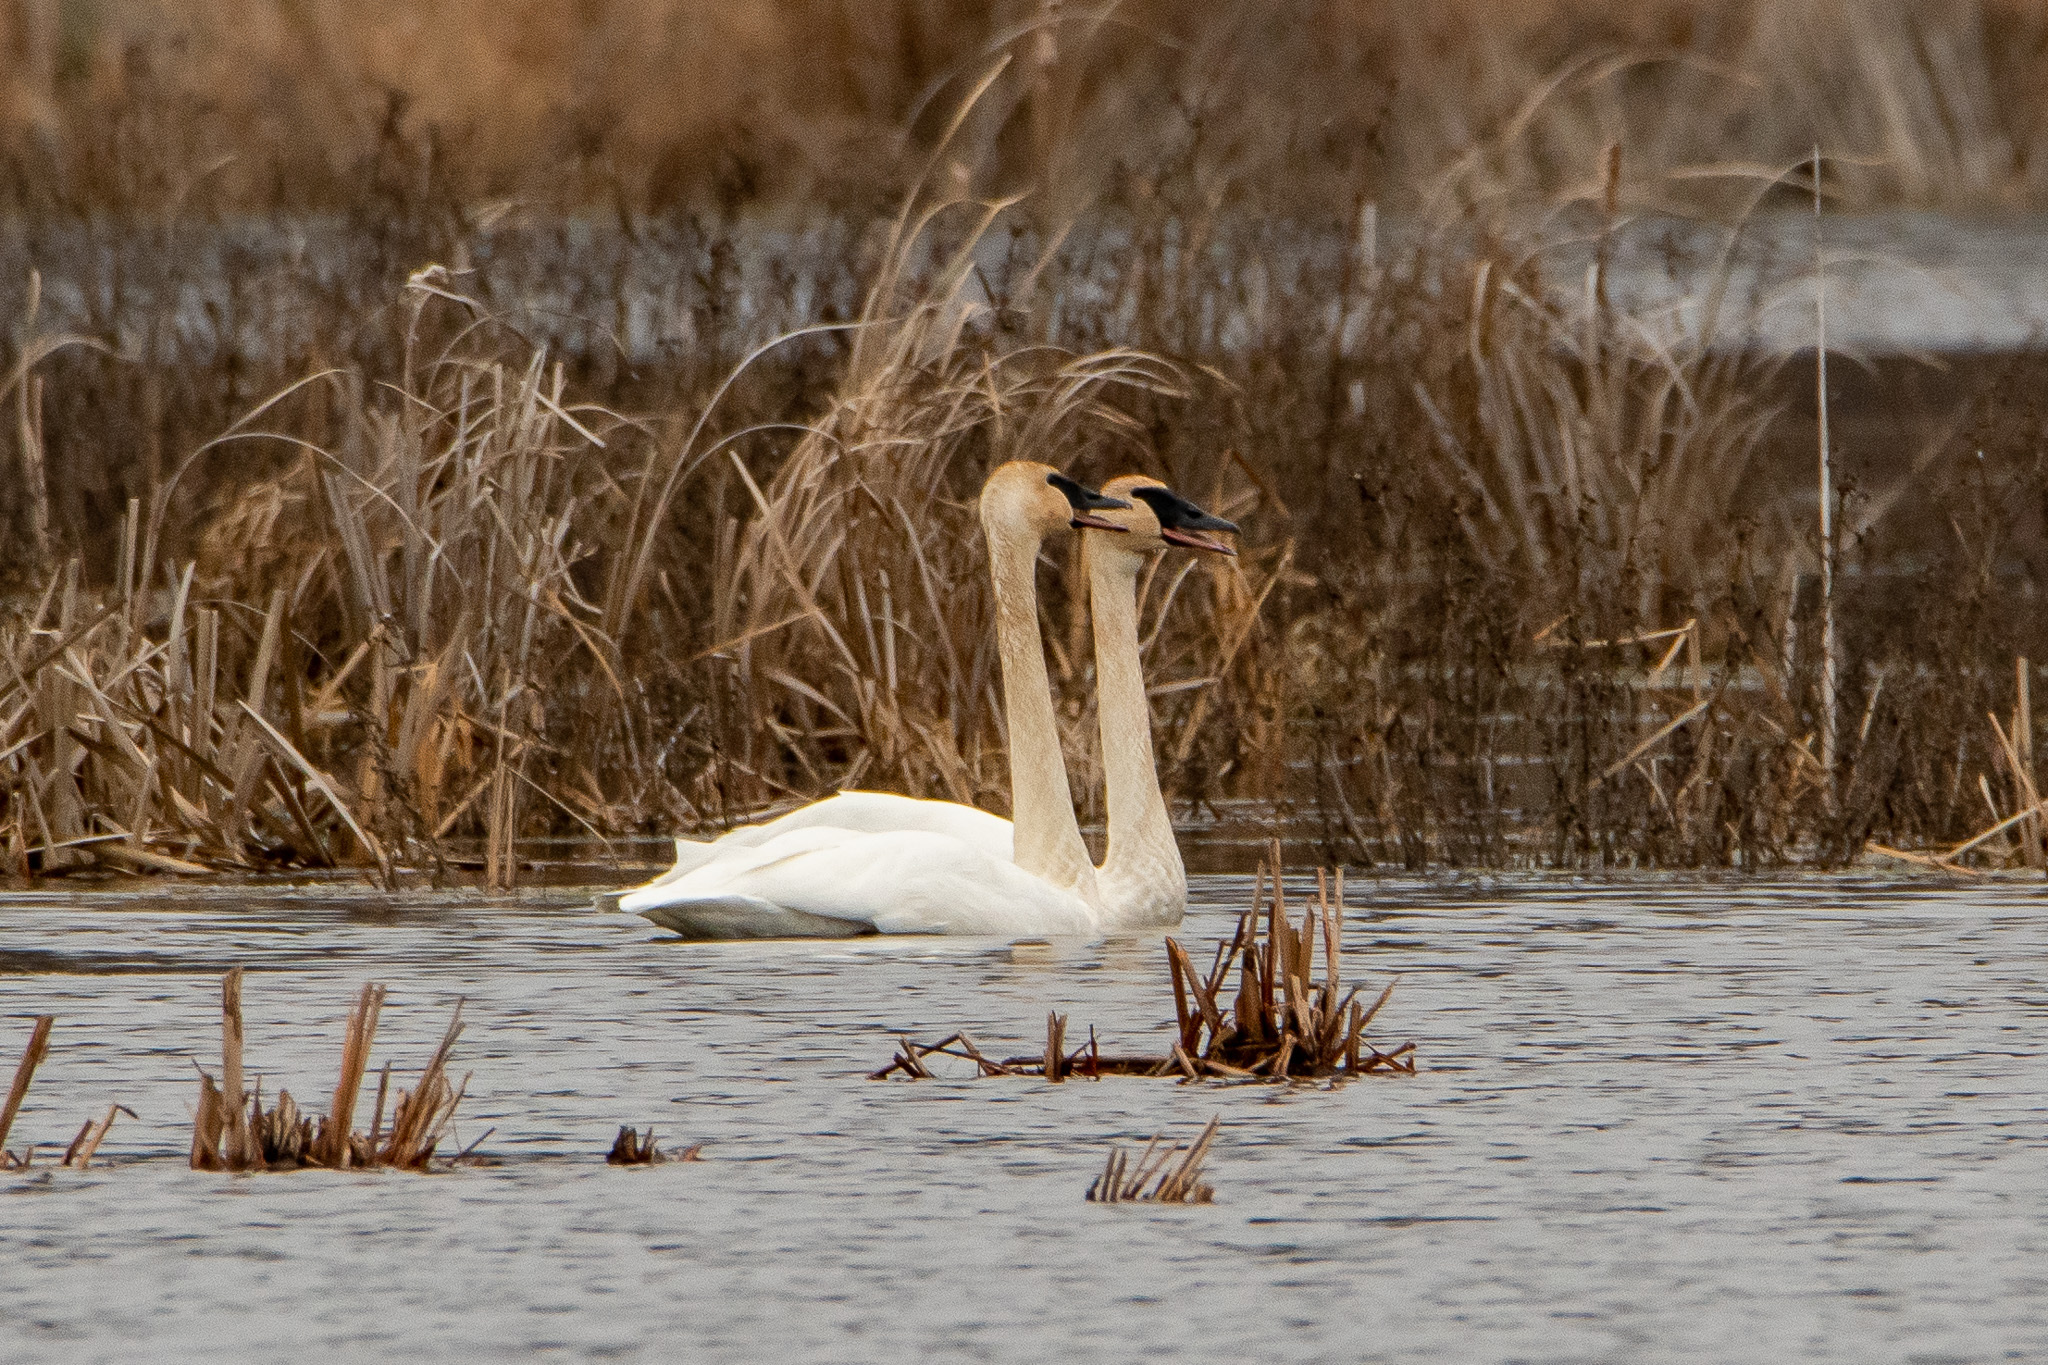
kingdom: Animalia
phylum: Chordata
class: Aves
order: Anseriformes
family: Anatidae
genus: Cygnus
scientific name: Cygnus buccinator
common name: Trumpeter swan
